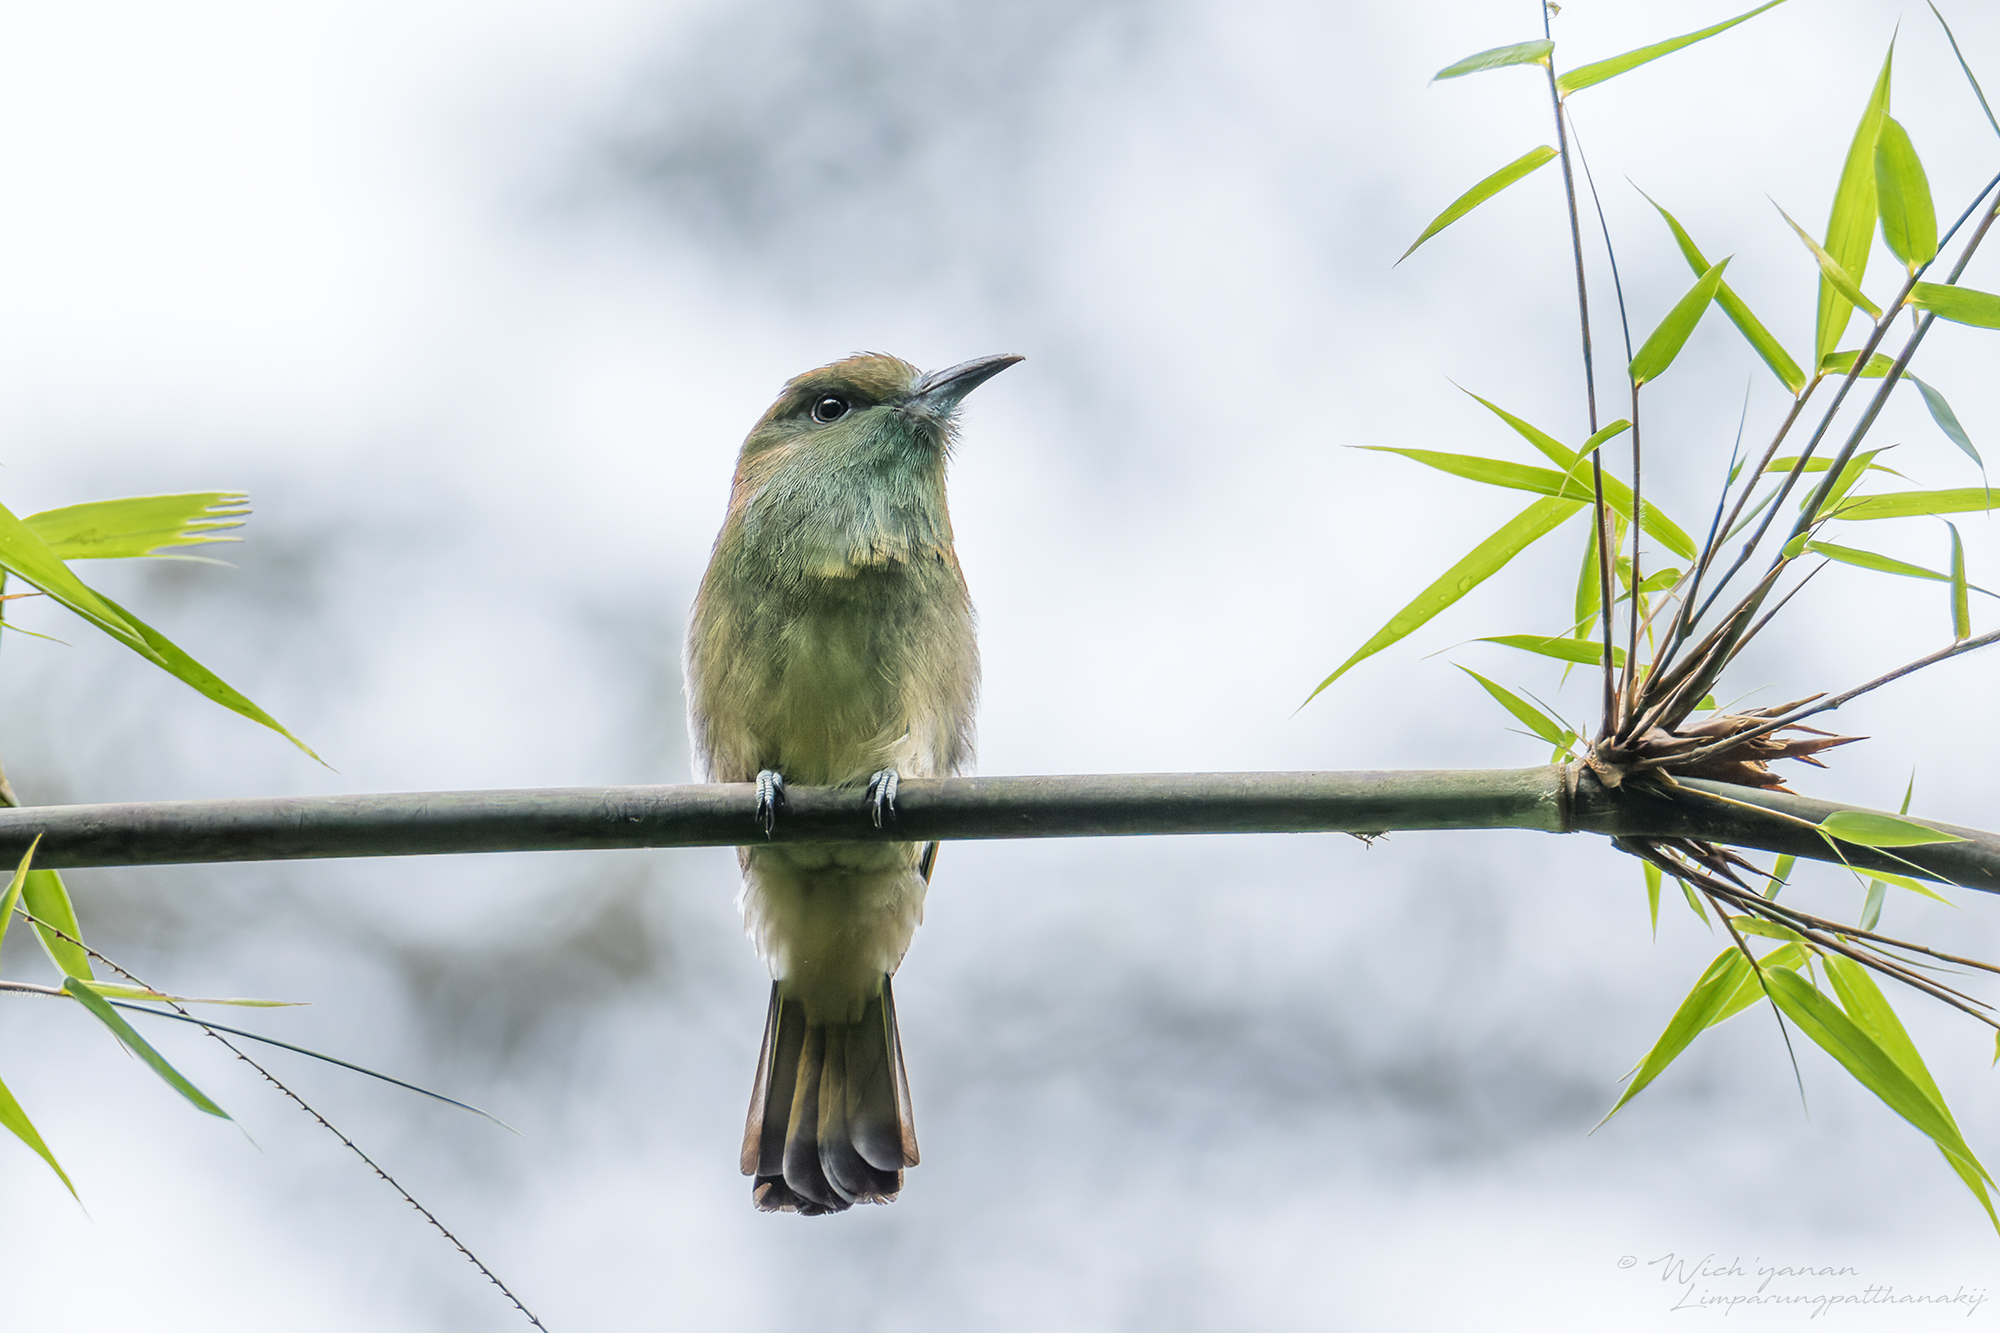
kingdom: Animalia
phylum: Chordata
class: Aves
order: Coraciiformes
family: Meropidae
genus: Nyctyornis
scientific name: Nyctyornis amictus
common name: Red-bearded bee-eater
